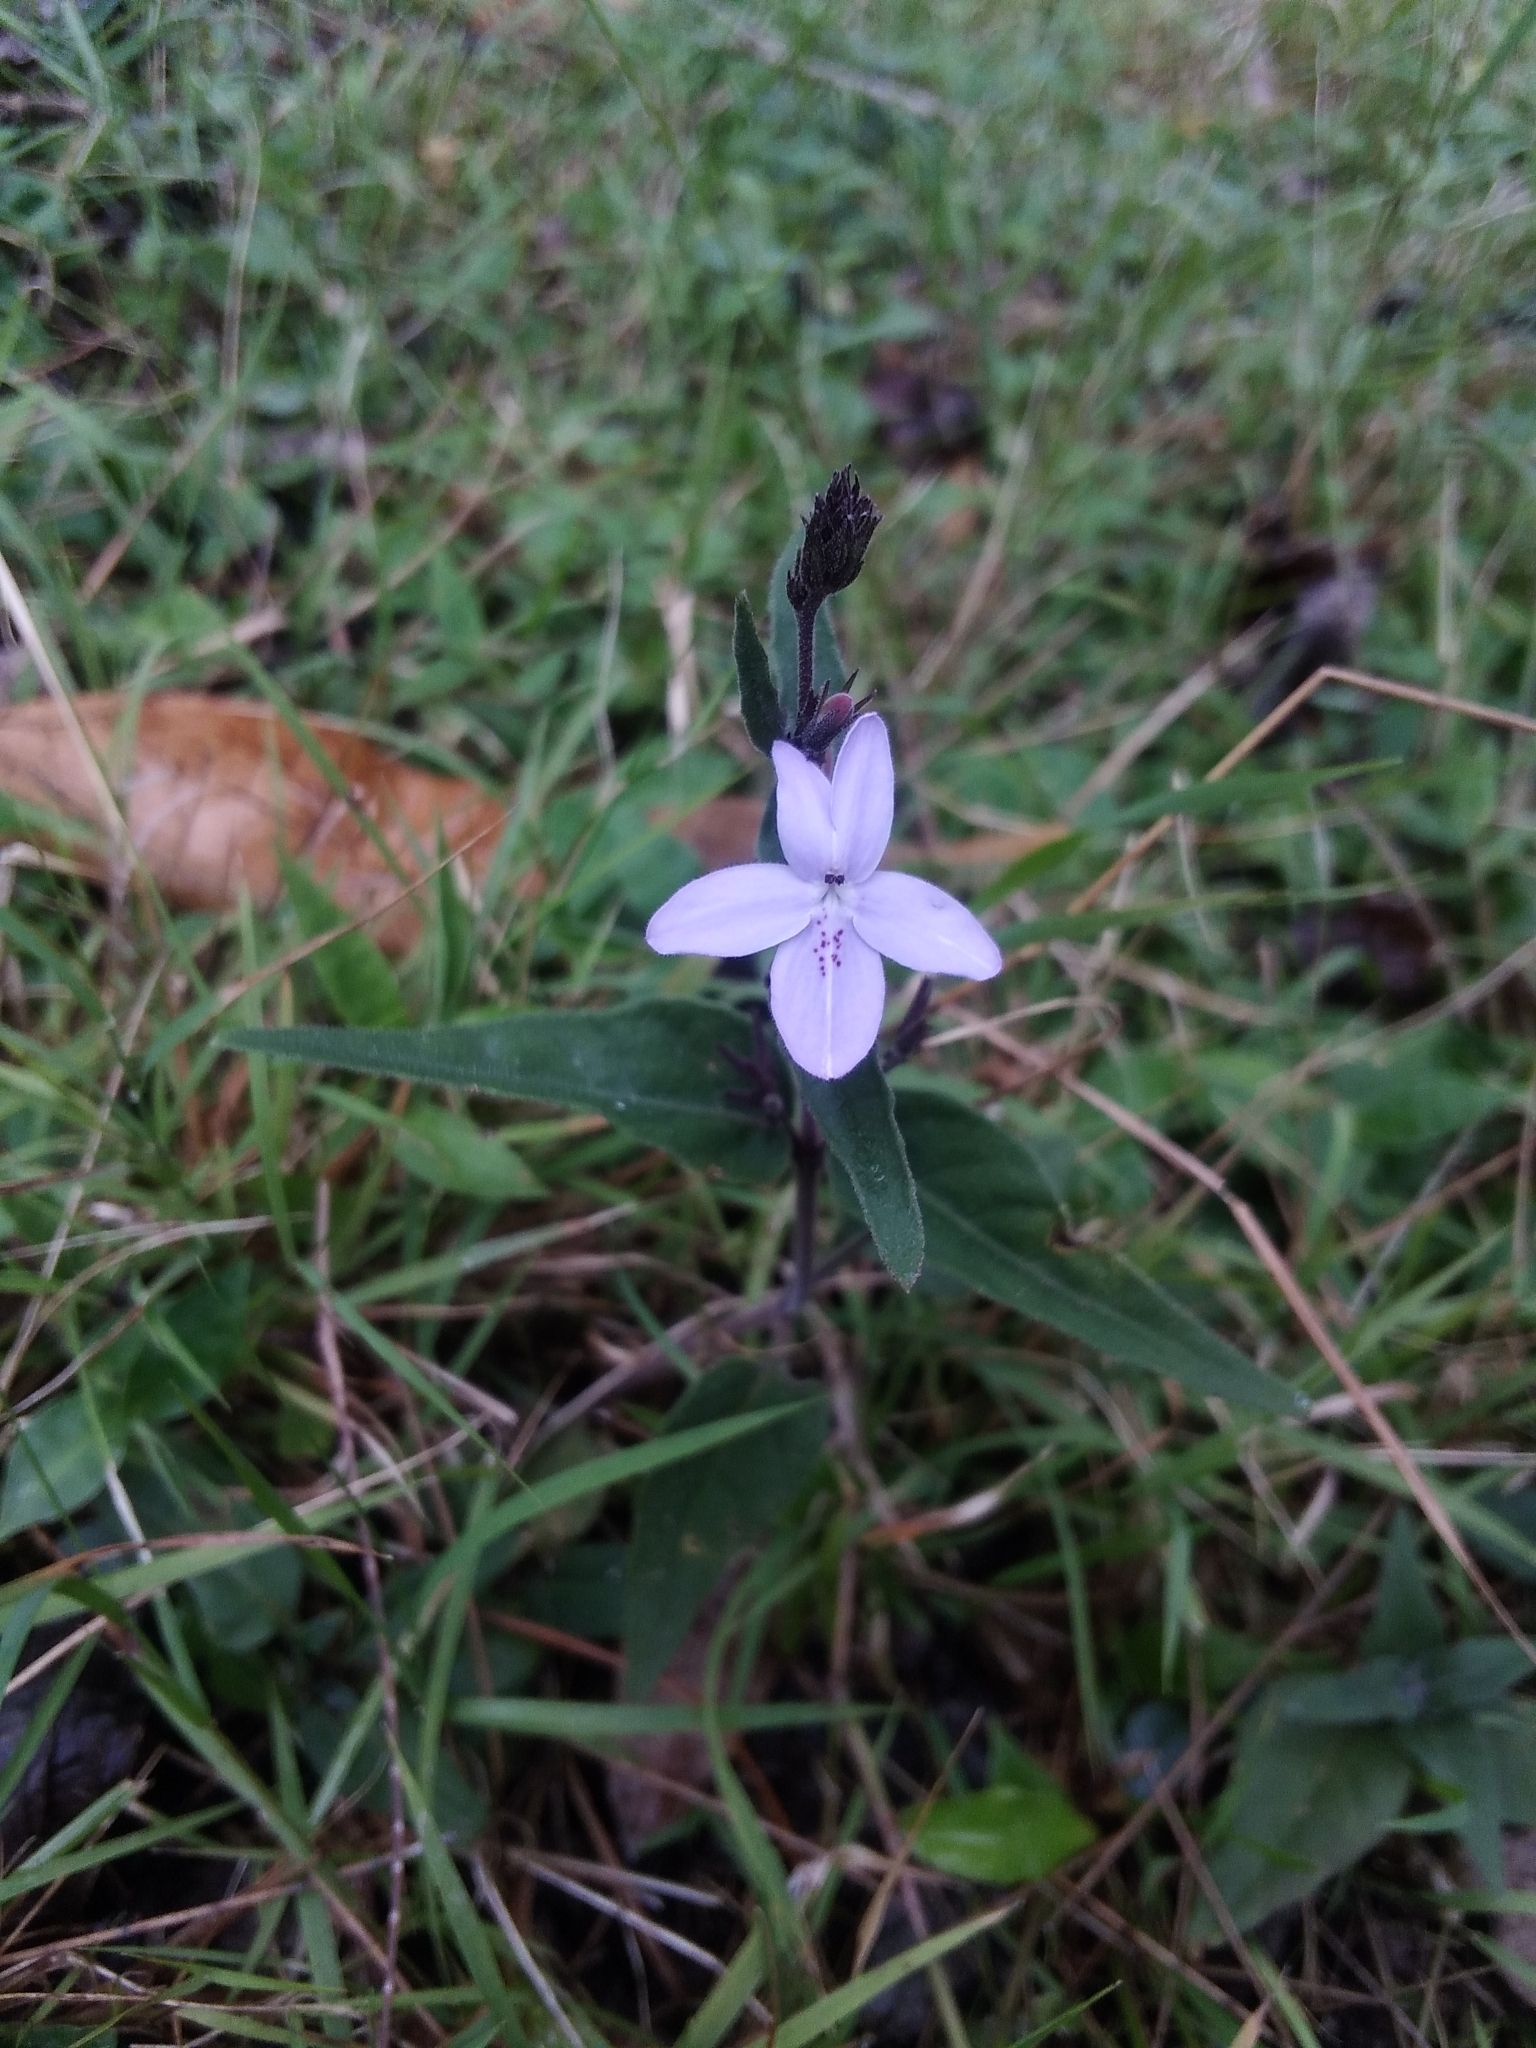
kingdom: Plantae
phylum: Tracheophyta
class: Magnoliopsida
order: Lamiales
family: Acanthaceae
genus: Pseuderanthemum
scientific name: Pseuderanthemum variabile
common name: Night and afternoon
